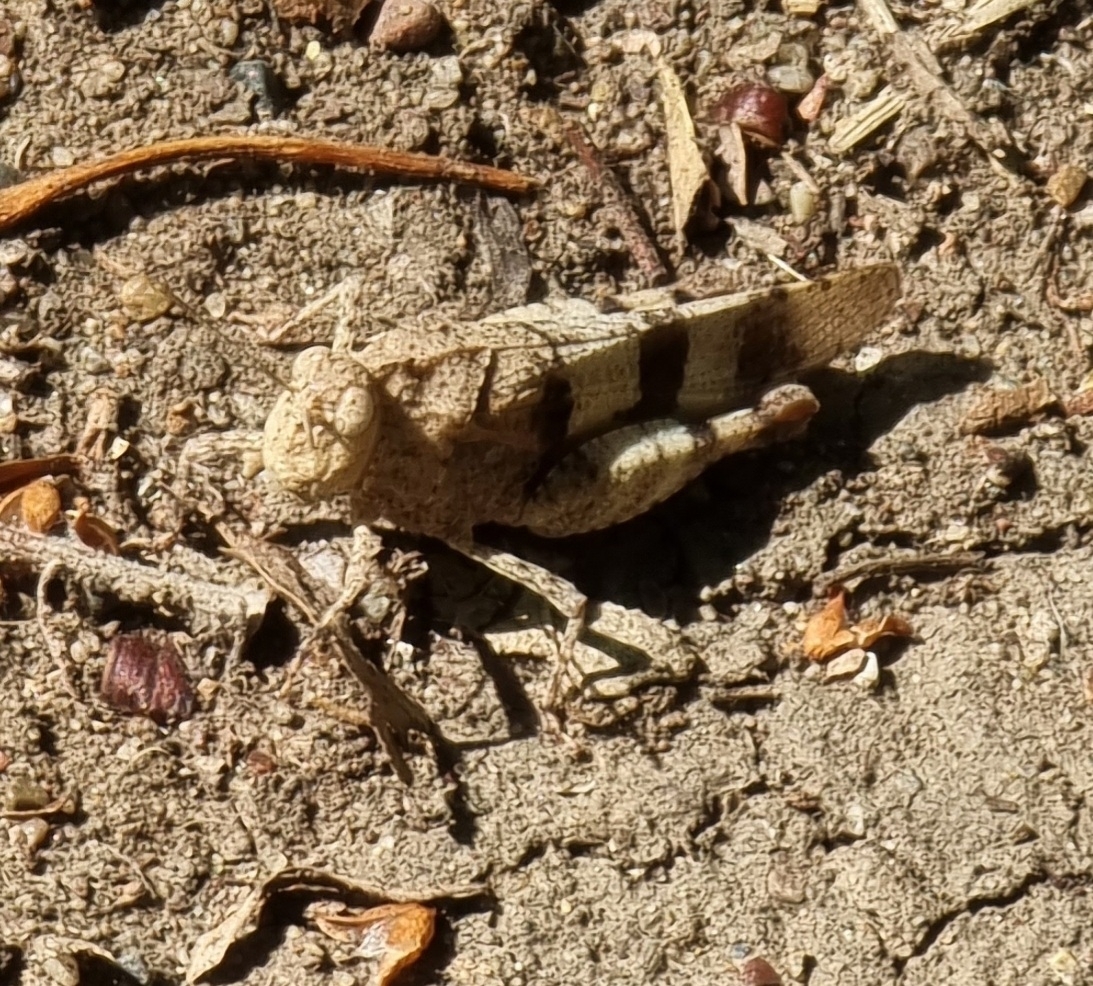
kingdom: Animalia
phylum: Arthropoda
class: Insecta
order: Orthoptera
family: Acrididae
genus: Oedipoda
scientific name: Oedipoda caerulescens
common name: Blue-winged grasshopper
